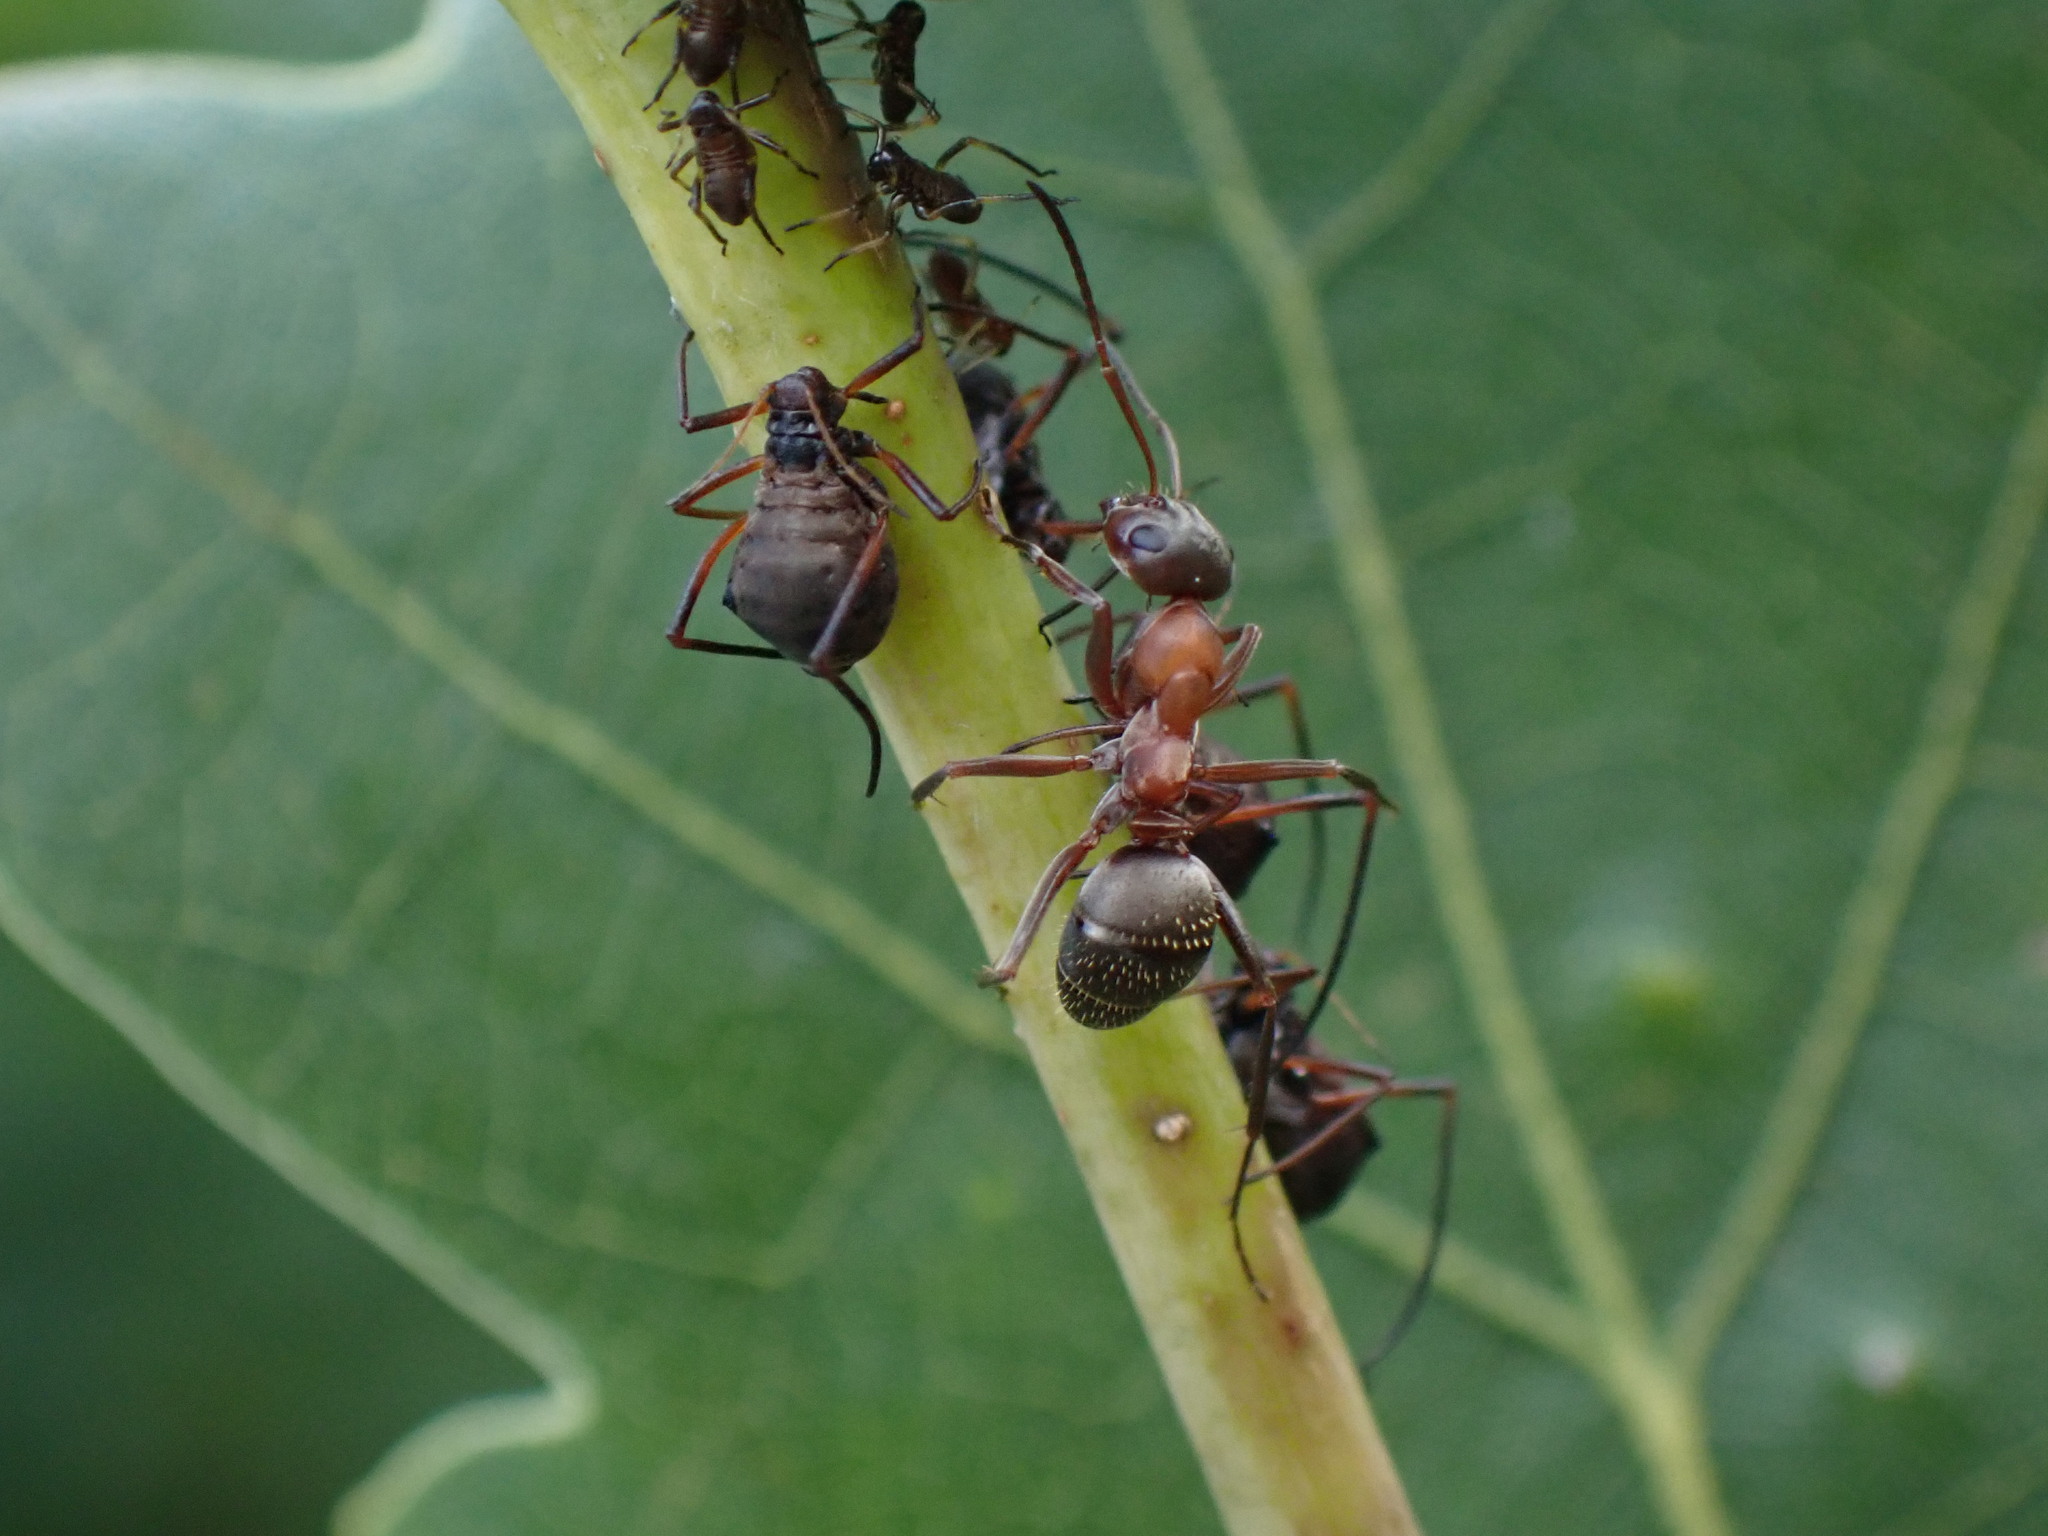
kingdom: Animalia
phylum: Arthropoda
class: Insecta
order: Hemiptera
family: Aphididae
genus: Lachnus
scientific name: Lachnus roboris
